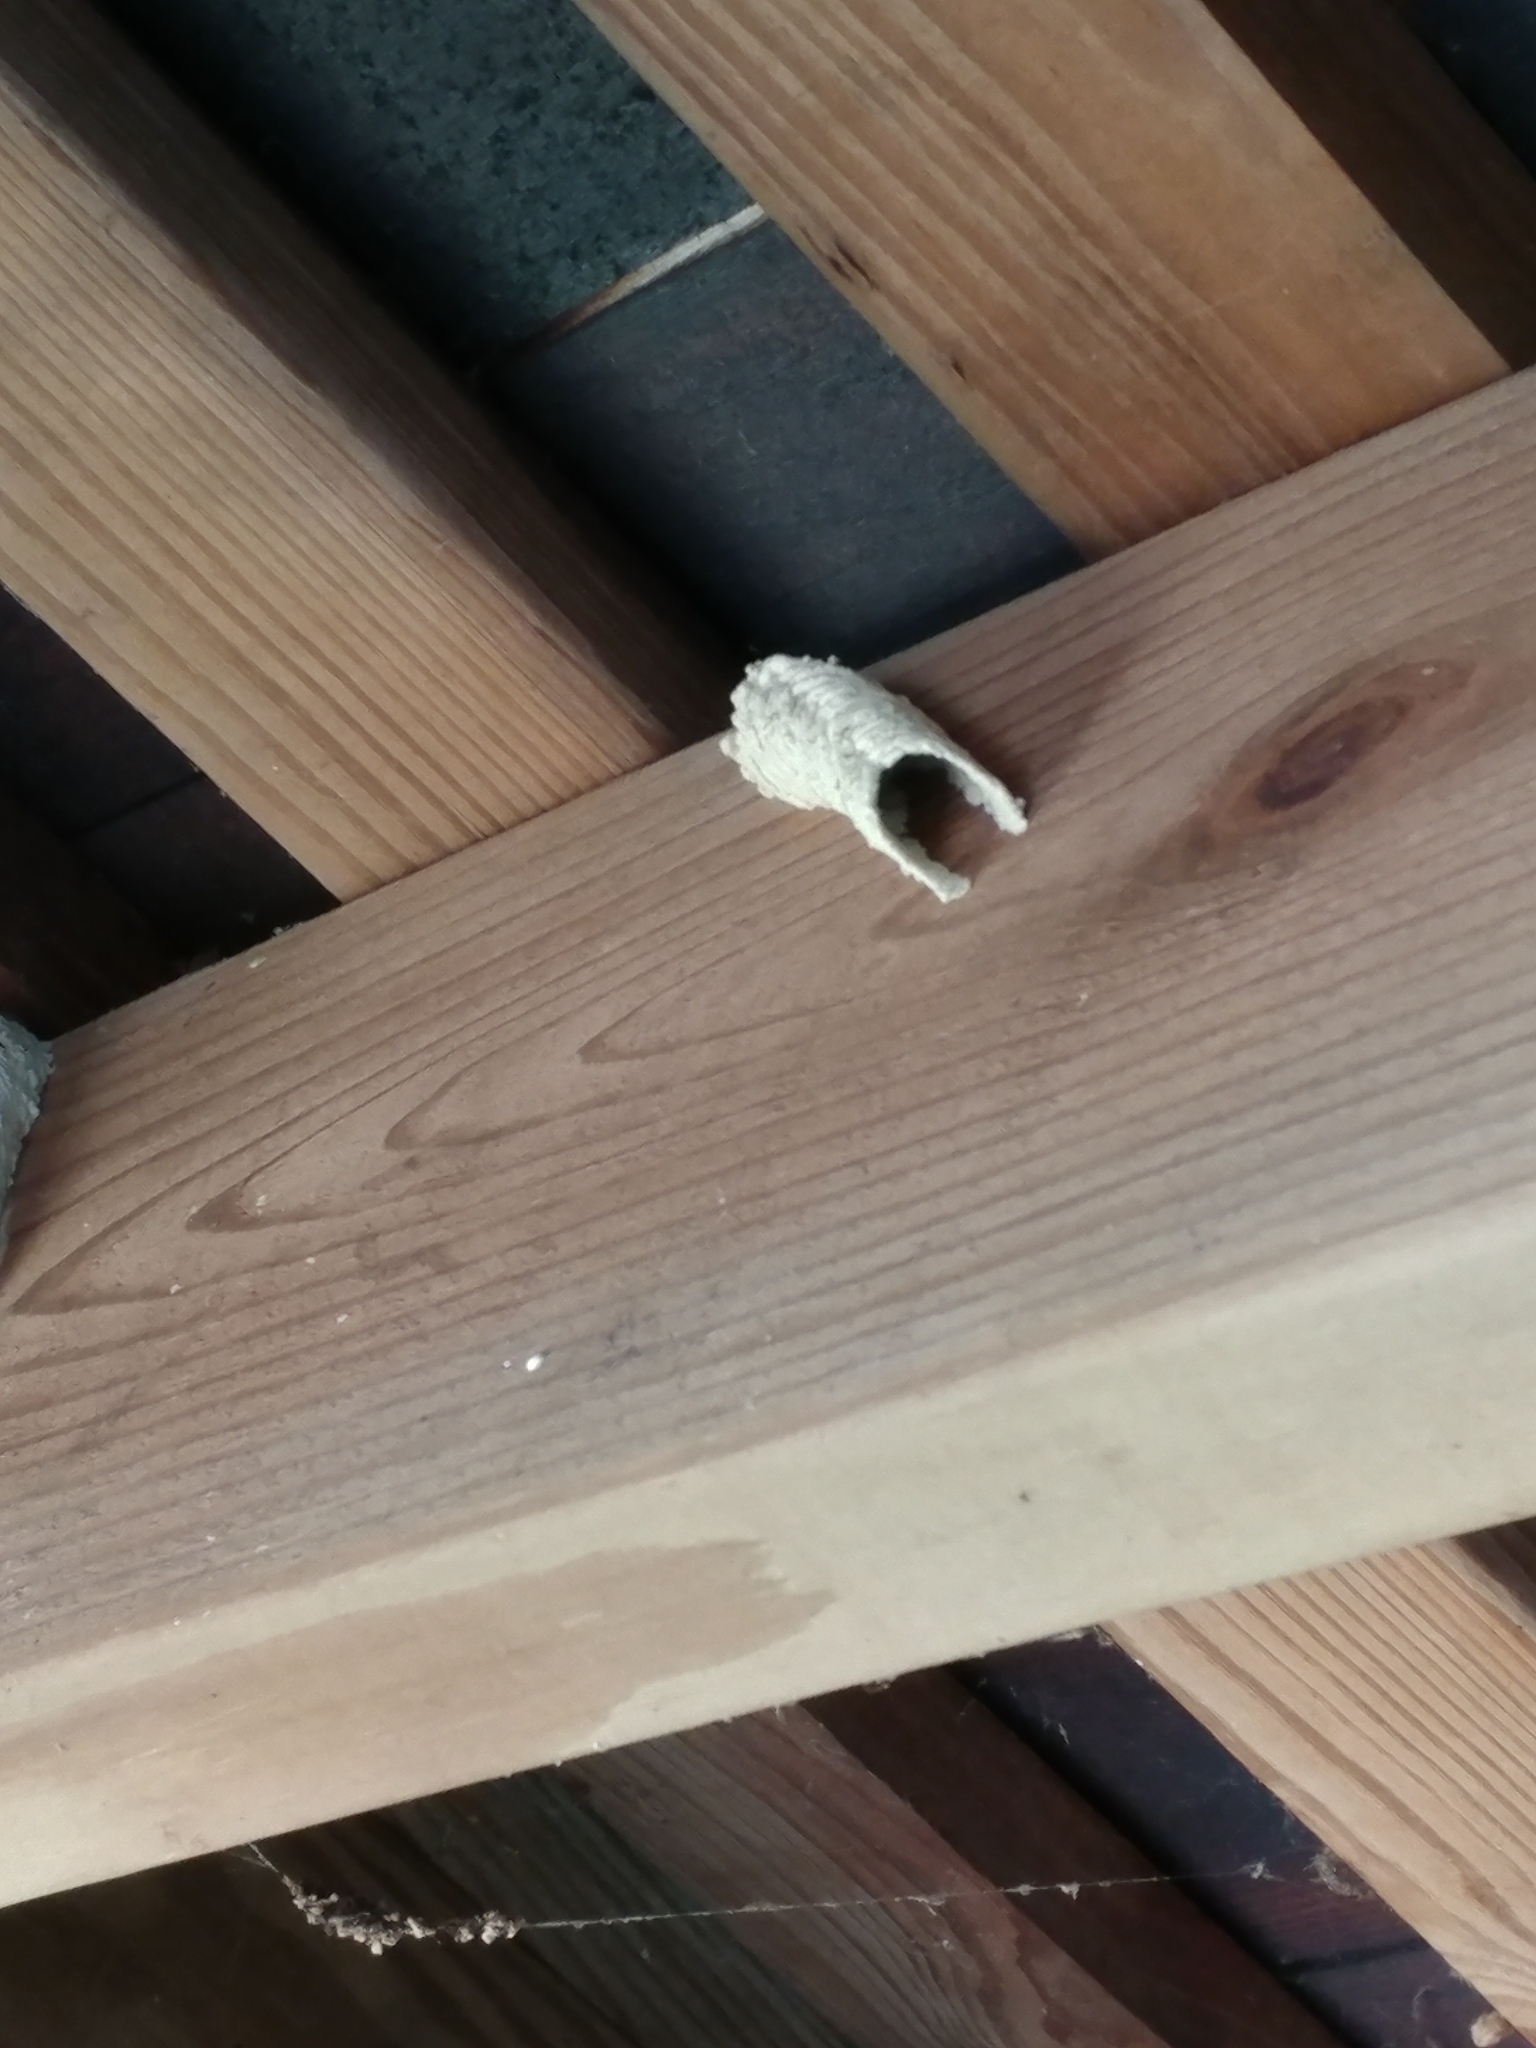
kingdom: Animalia
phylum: Arthropoda
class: Insecta
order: Hymenoptera
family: Crabronidae
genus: Trypoxylon
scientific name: Trypoxylon politum
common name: Organ-pipe mud-dauber wasp
